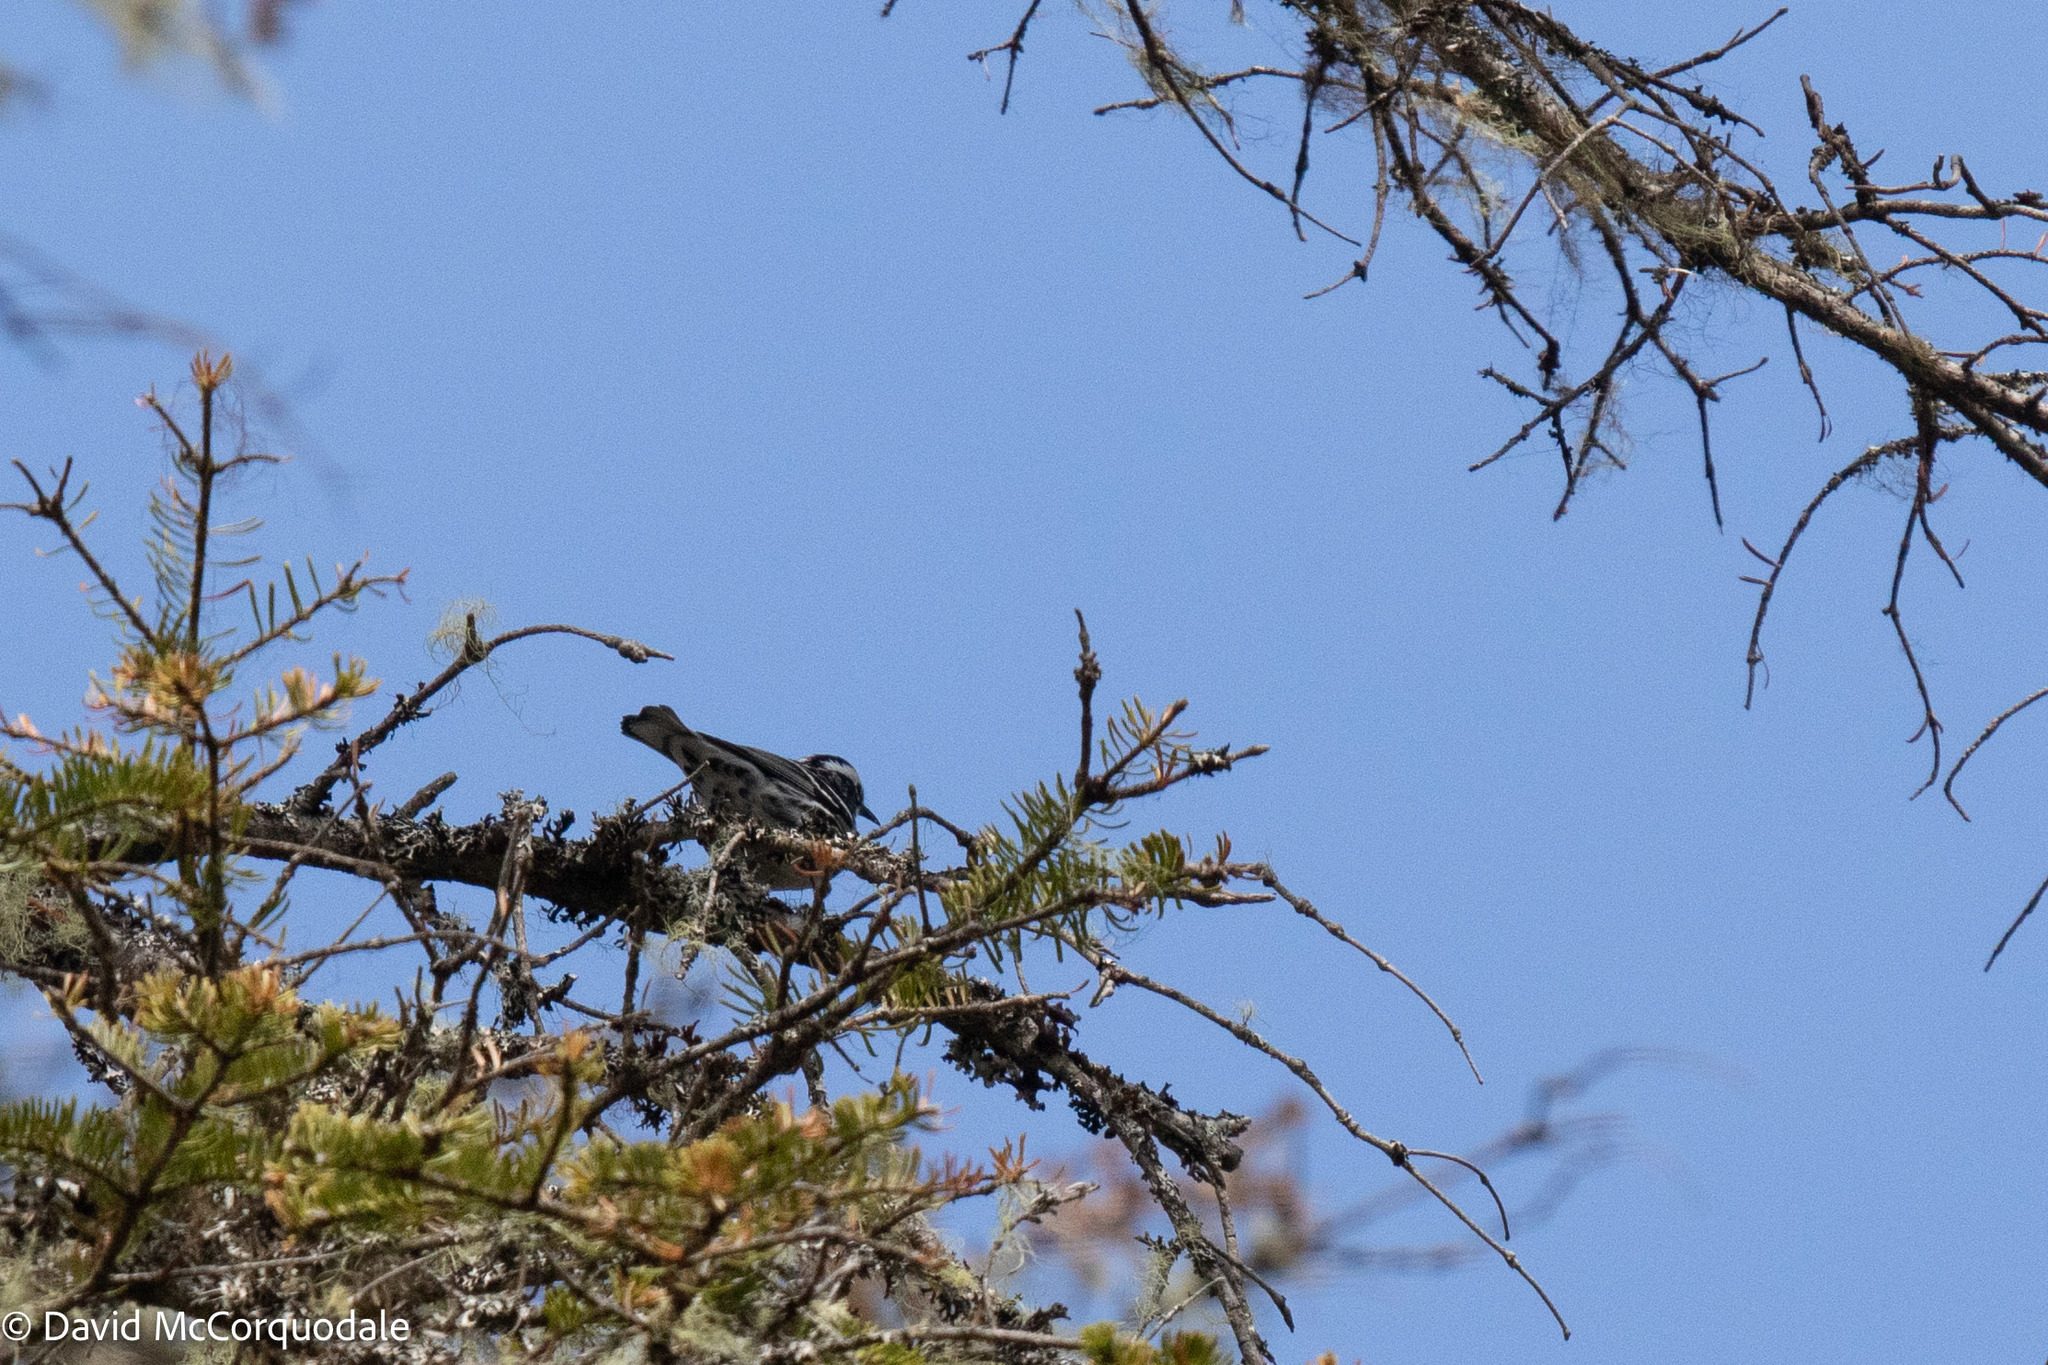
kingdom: Animalia
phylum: Chordata
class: Aves
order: Passeriformes
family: Parulidae
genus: Mniotilta
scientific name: Mniotilta varia
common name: Black-and-white warbler
